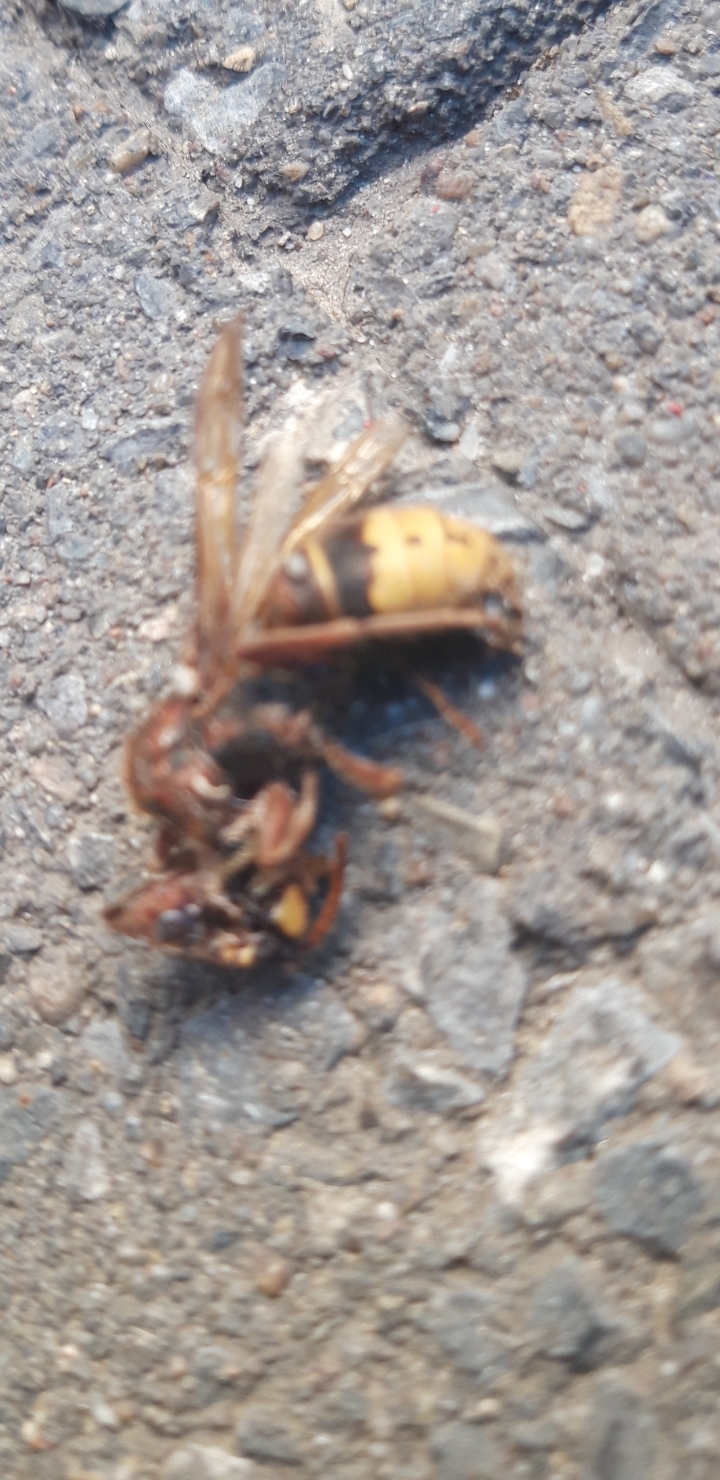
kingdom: Animalia
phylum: Arthropoda
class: Insecta
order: Hymenoptera
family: Vespidae
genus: Vespa
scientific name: Vespa crabro
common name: Hornet
